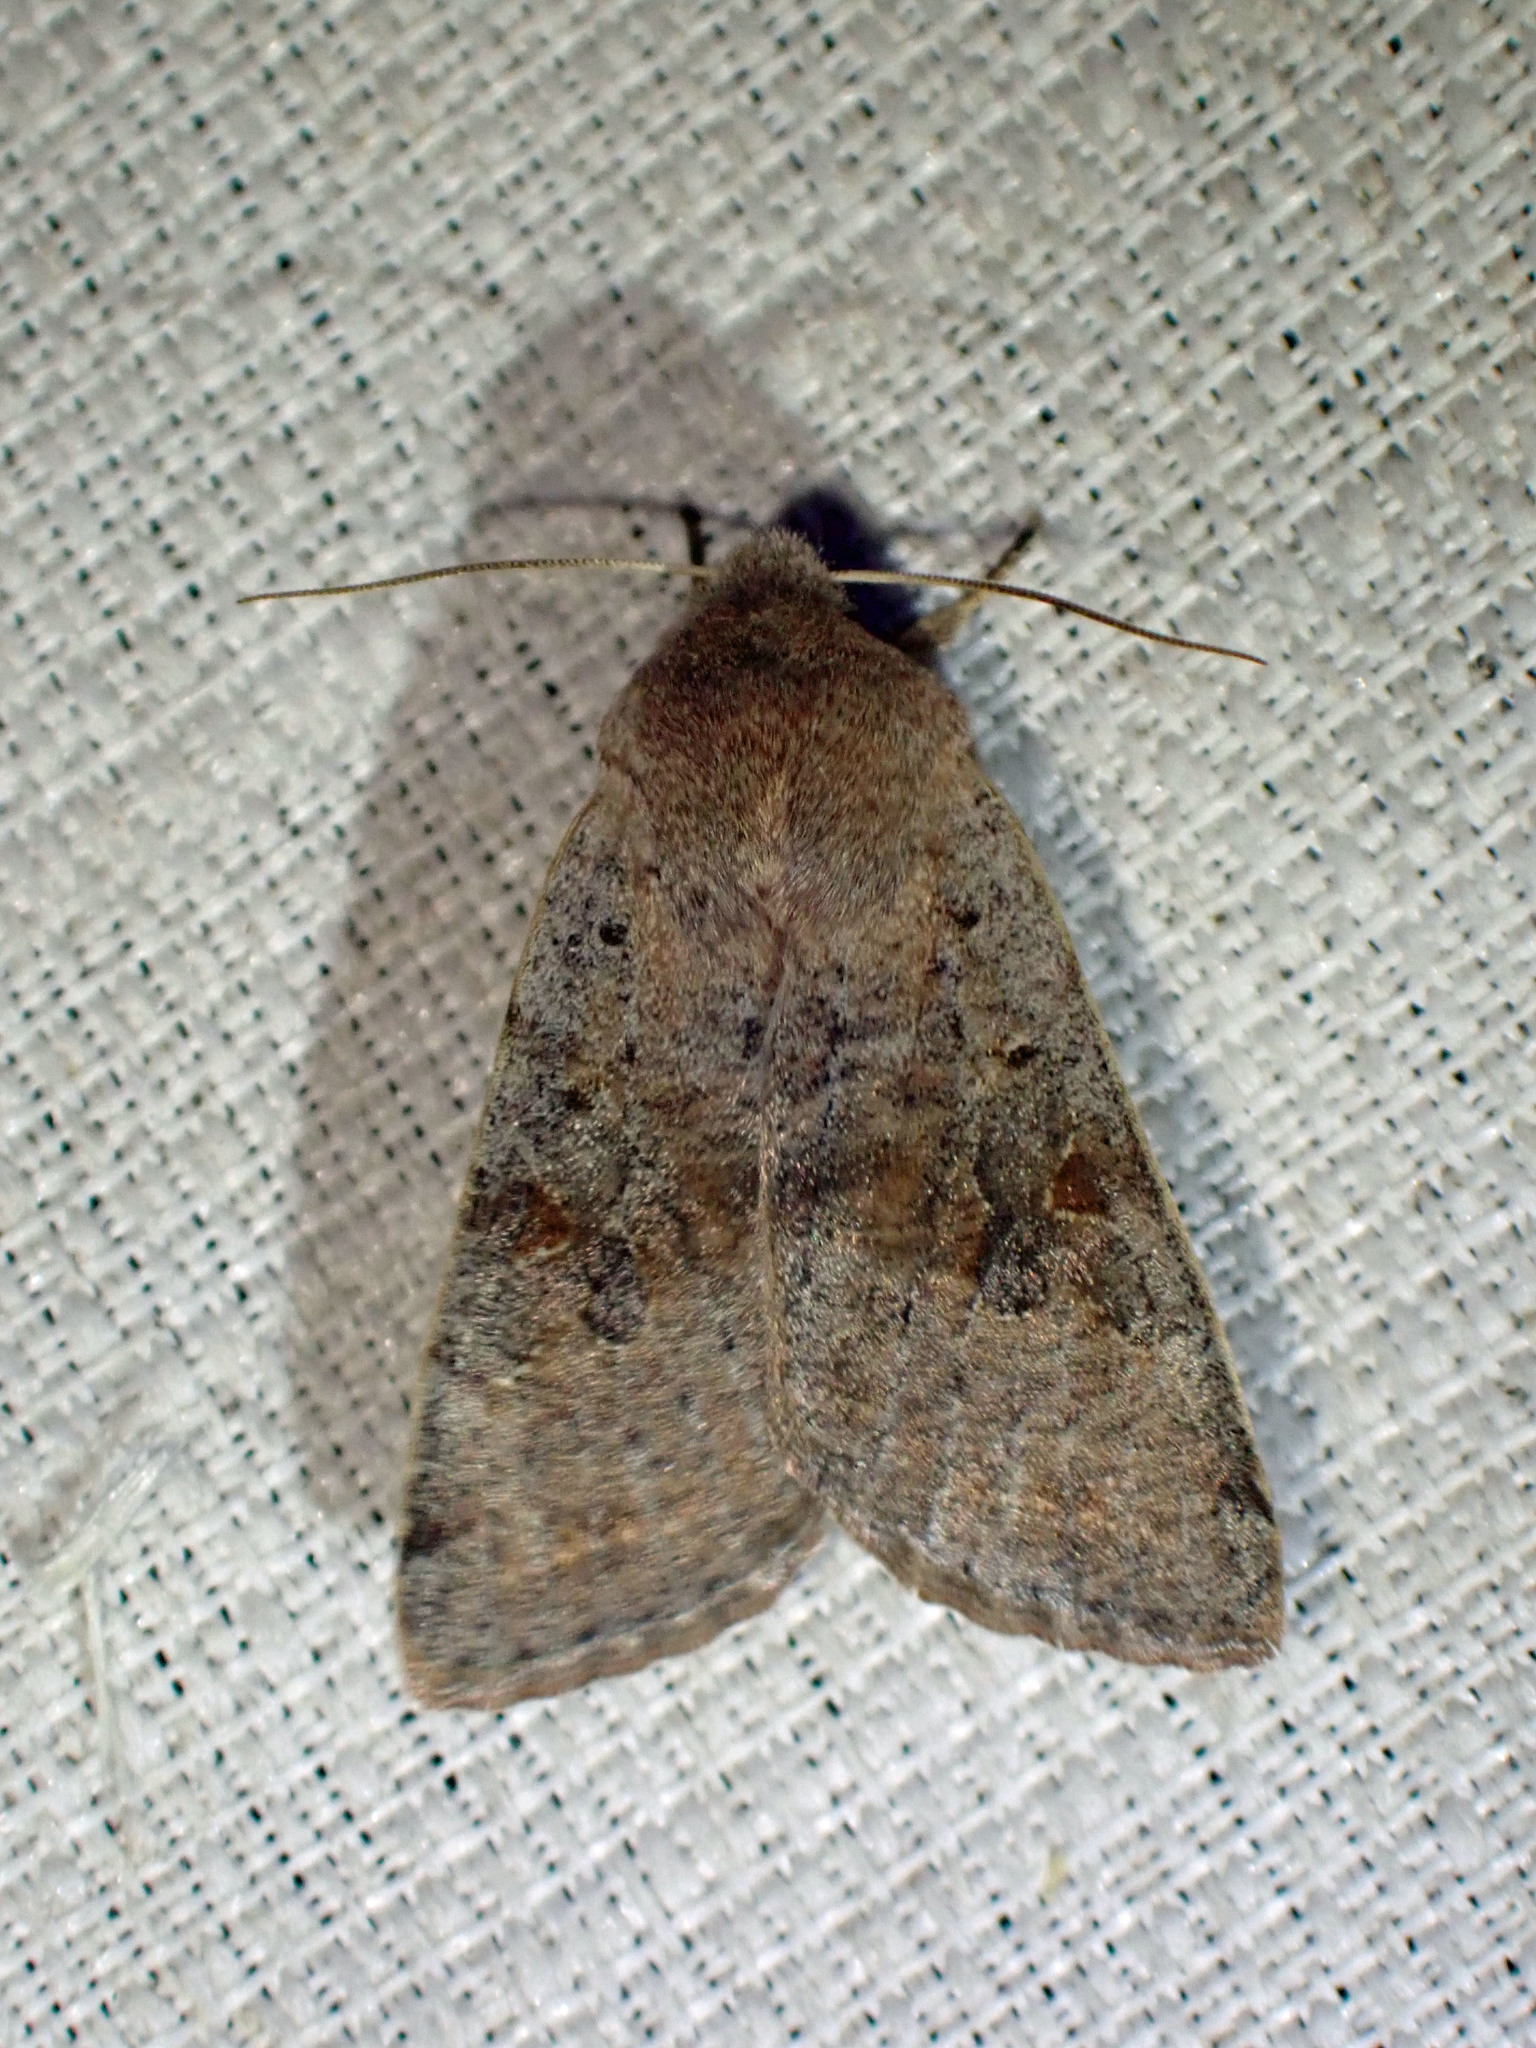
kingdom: Animalia
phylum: Arthropoda
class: Insecta
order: Lepidoptera
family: Noctuidae
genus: Orthosia
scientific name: Orthosia hibisci
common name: Green fruitworm
